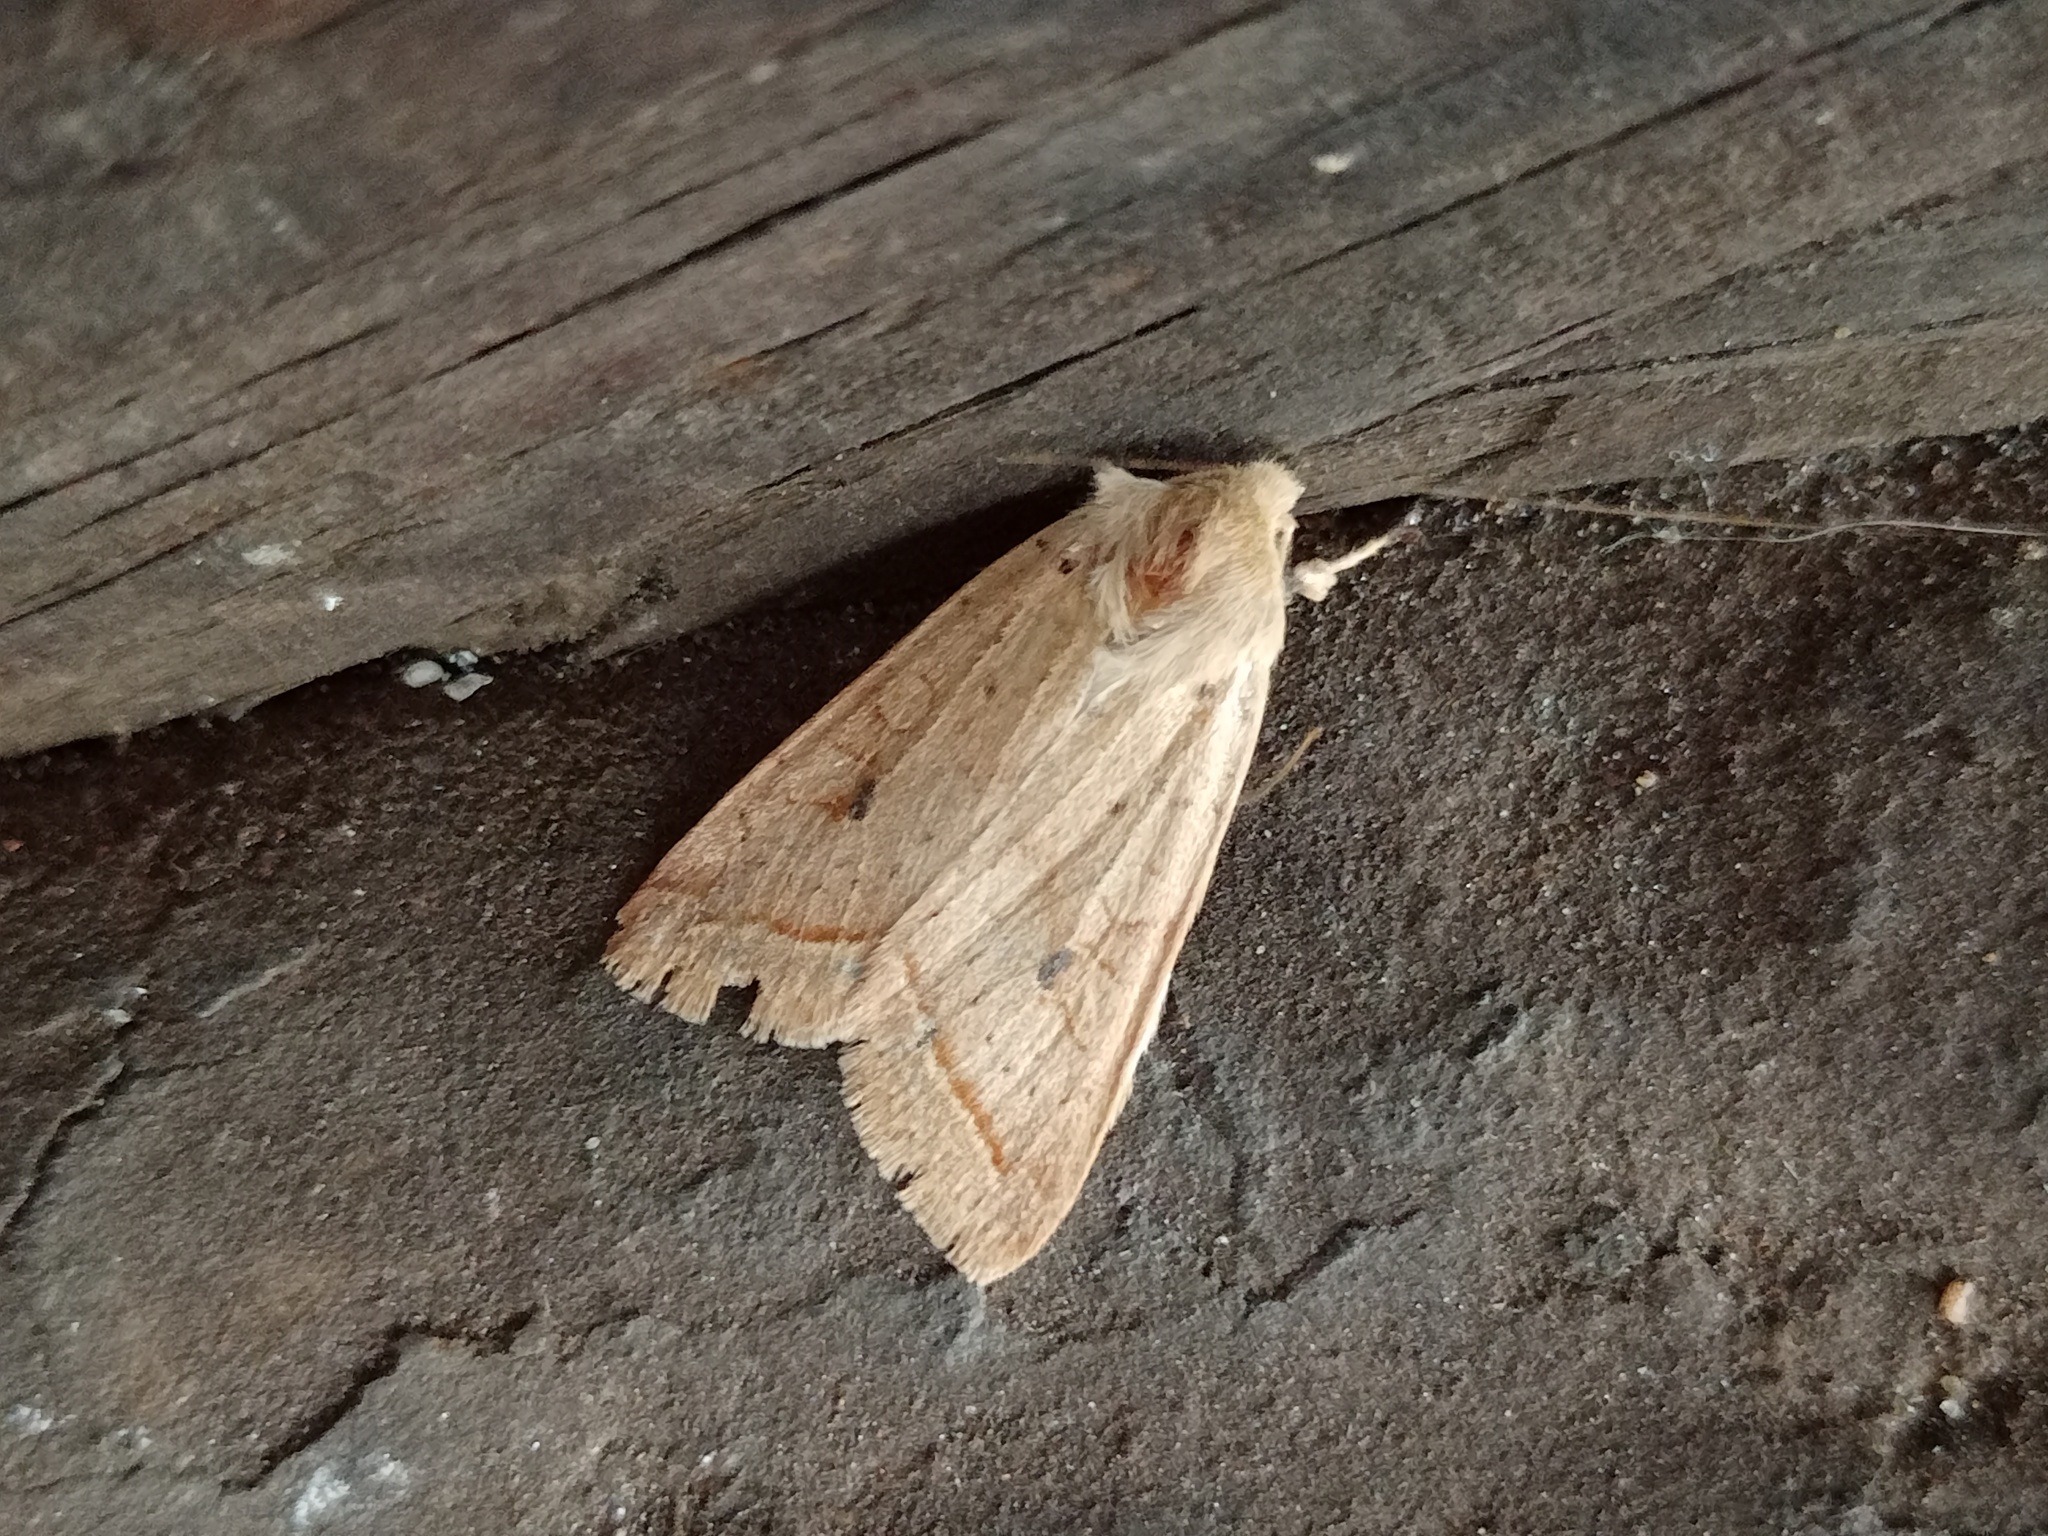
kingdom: Animalia
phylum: Arthropoda
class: Insecta
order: Lepidoptera
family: Noctuidae
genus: Agrochola
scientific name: Agrochola macilenta
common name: Yellow-line quaker
